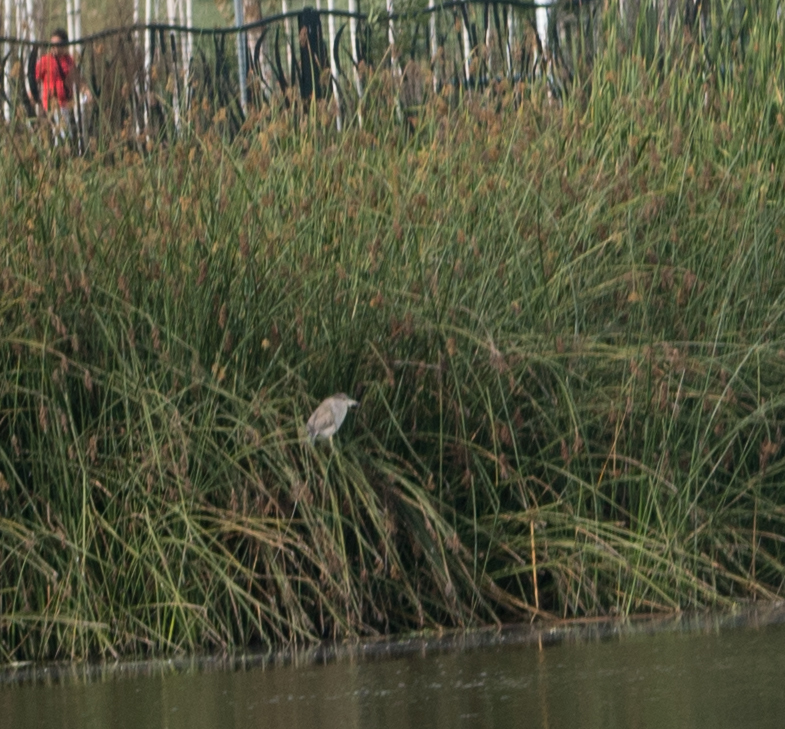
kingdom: Animalia
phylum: Chordata
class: Aves
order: Pelecaniformes
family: Ardeidae
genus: Nycticorax
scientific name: Nycticorax nycticorax
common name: Black-crowned night heron
